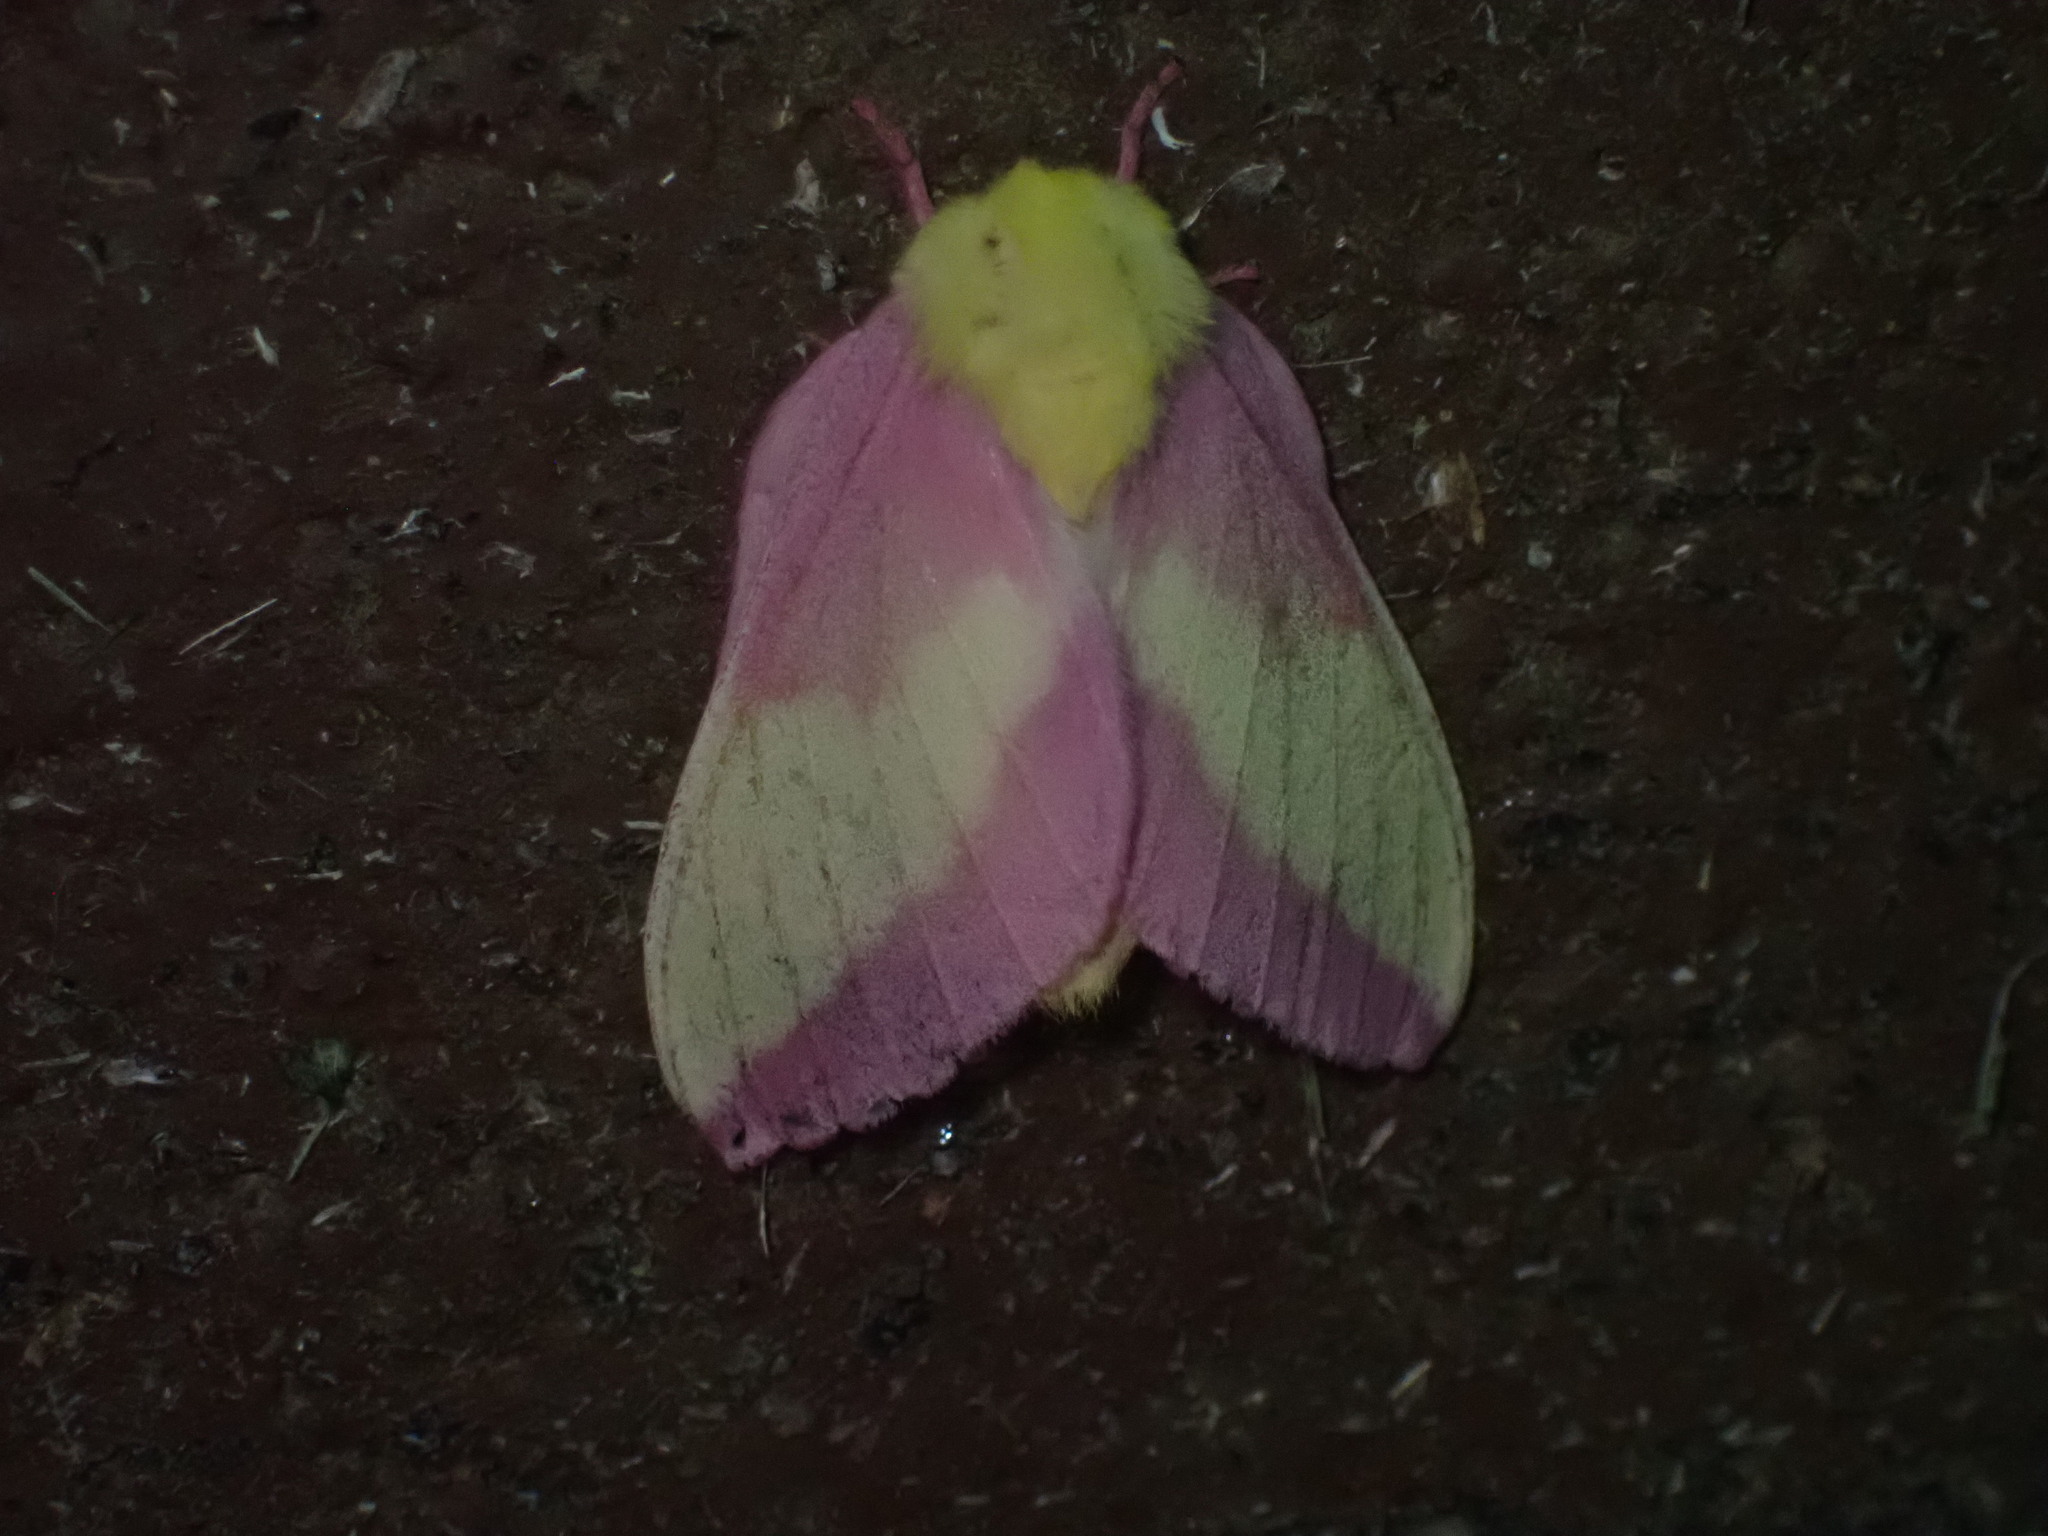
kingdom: Animalia
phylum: Arthropoda
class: Insecta
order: Lepidoptera
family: Saturniidae
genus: Dryocampa
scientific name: Dryocampa rubicunda
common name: Rosy maple moth
